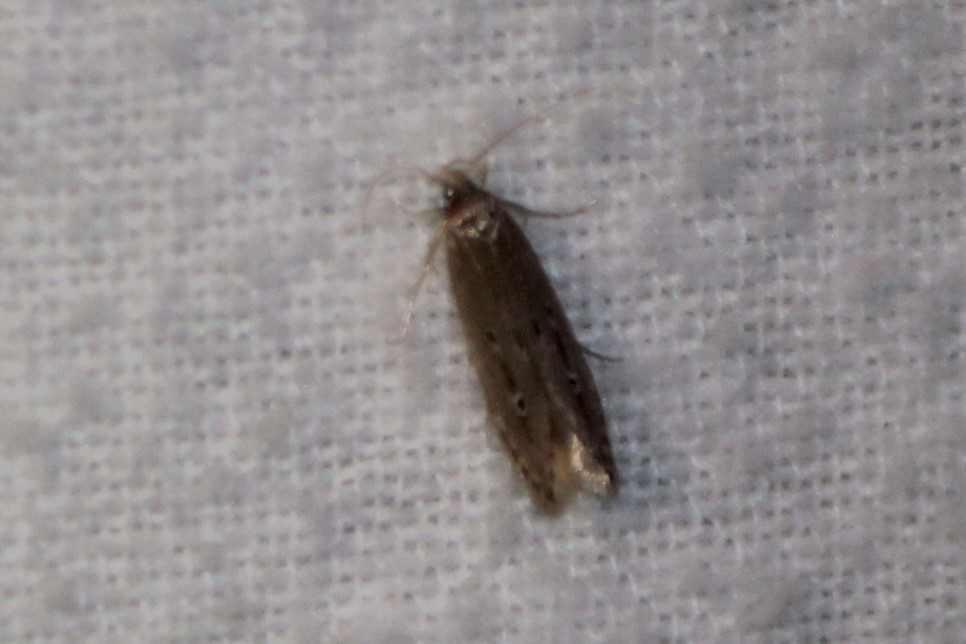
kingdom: Animalia
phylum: Arthropoda
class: Insecta
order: Lepidoptera
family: Cosmopterigidae
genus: Limnaecia
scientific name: Limnaecia phragmitella
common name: Bulrush cosmet
